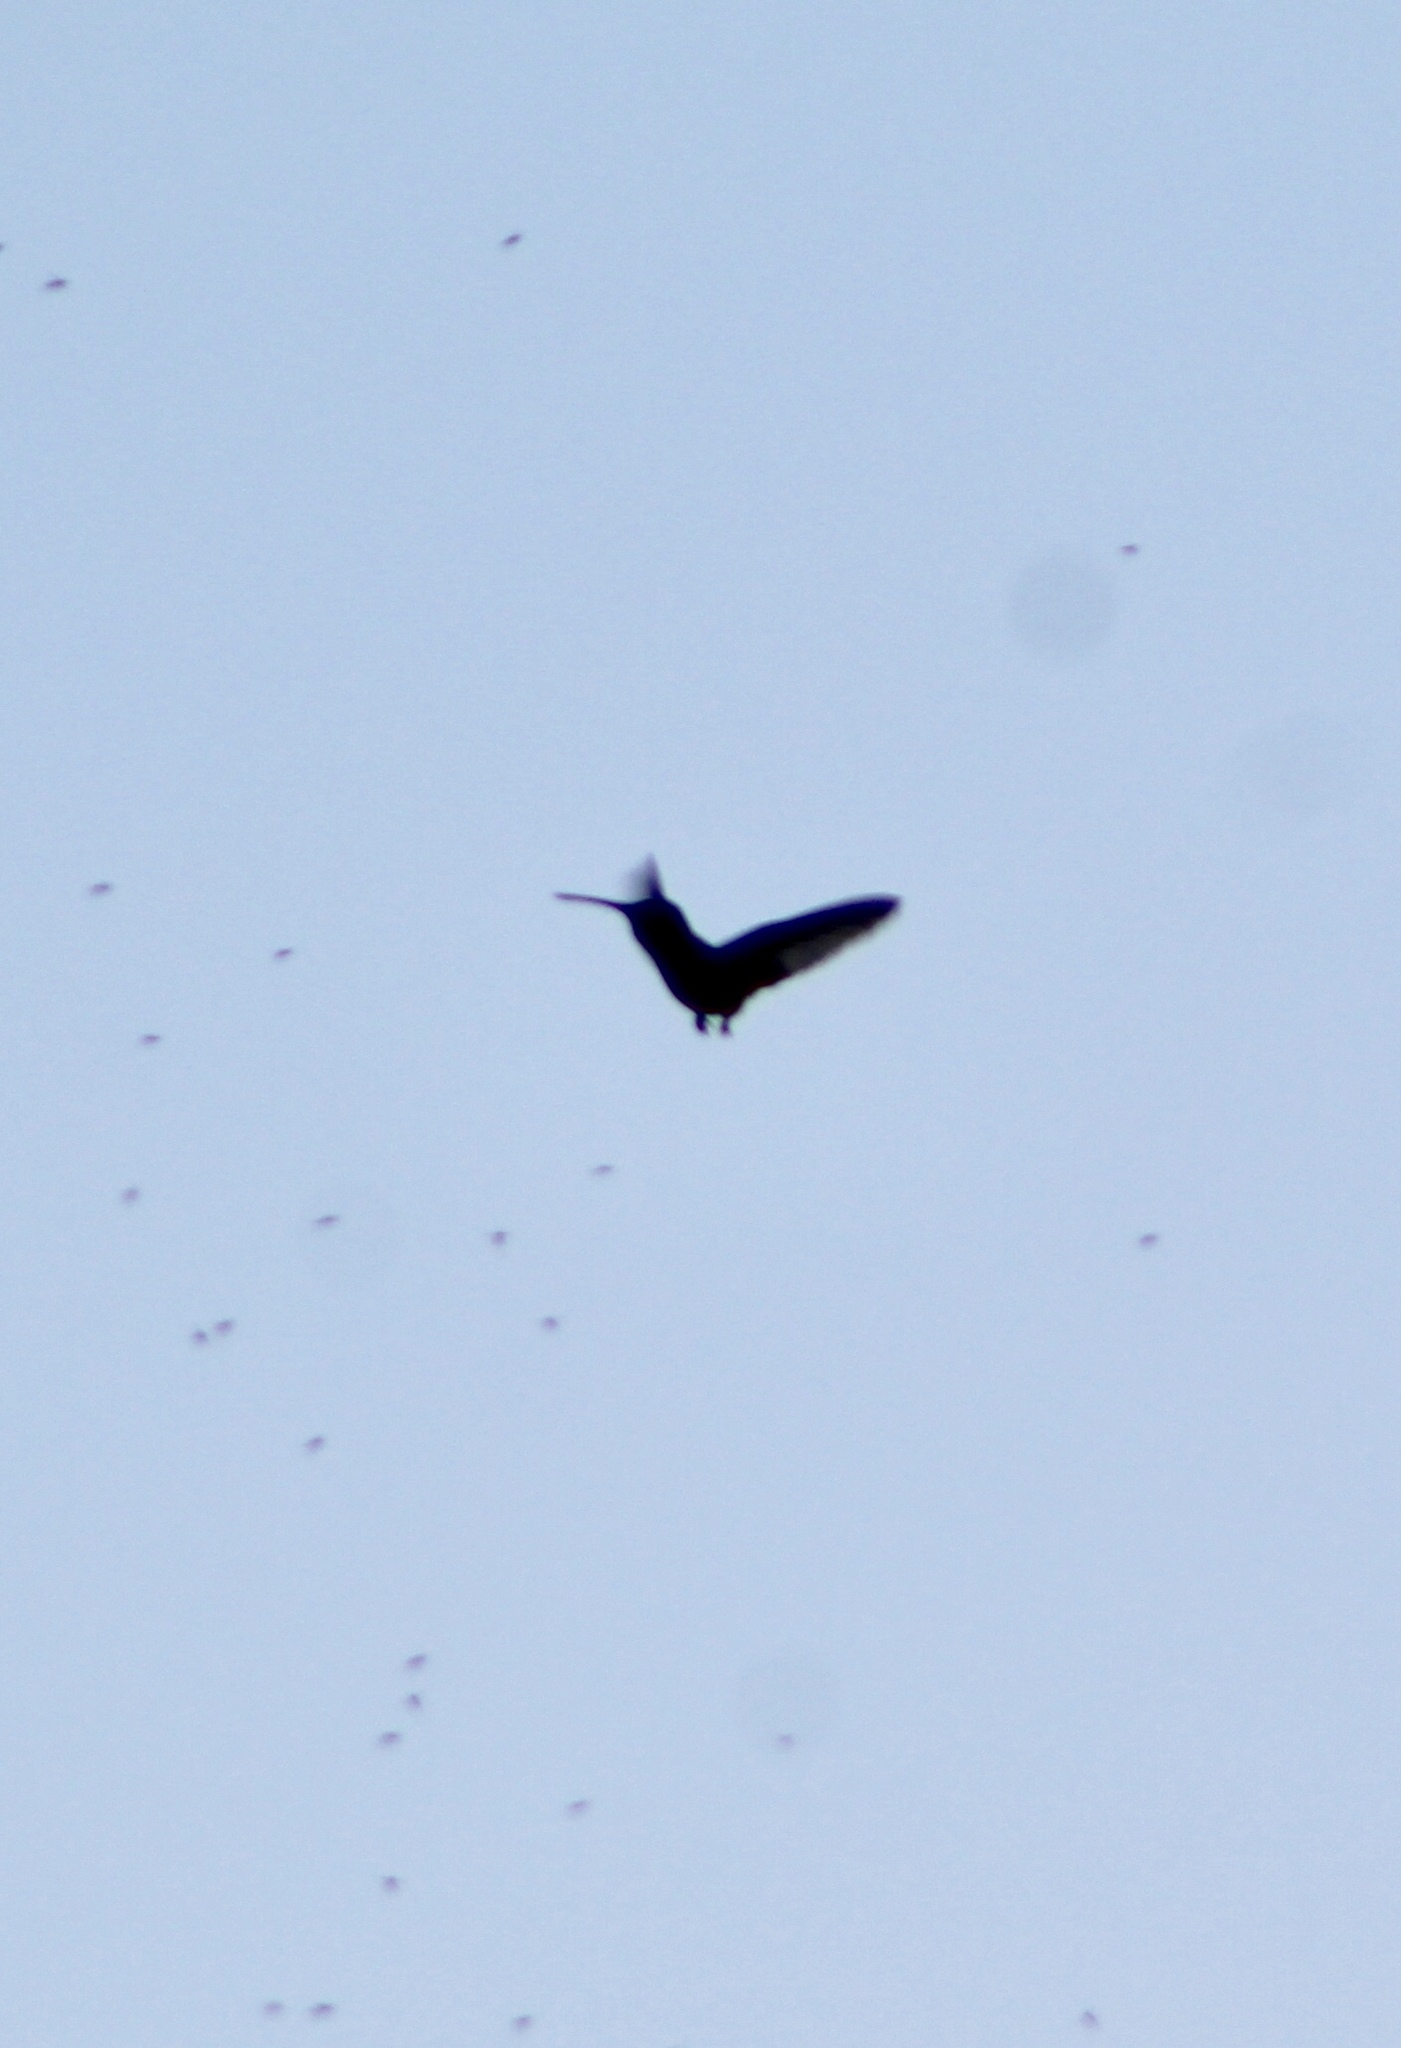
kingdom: Animalia
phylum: Chordata
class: Aves
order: Apodiformes
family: Trochilidae
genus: Calypte
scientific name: Calypte anna
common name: Anna's hummingbird
